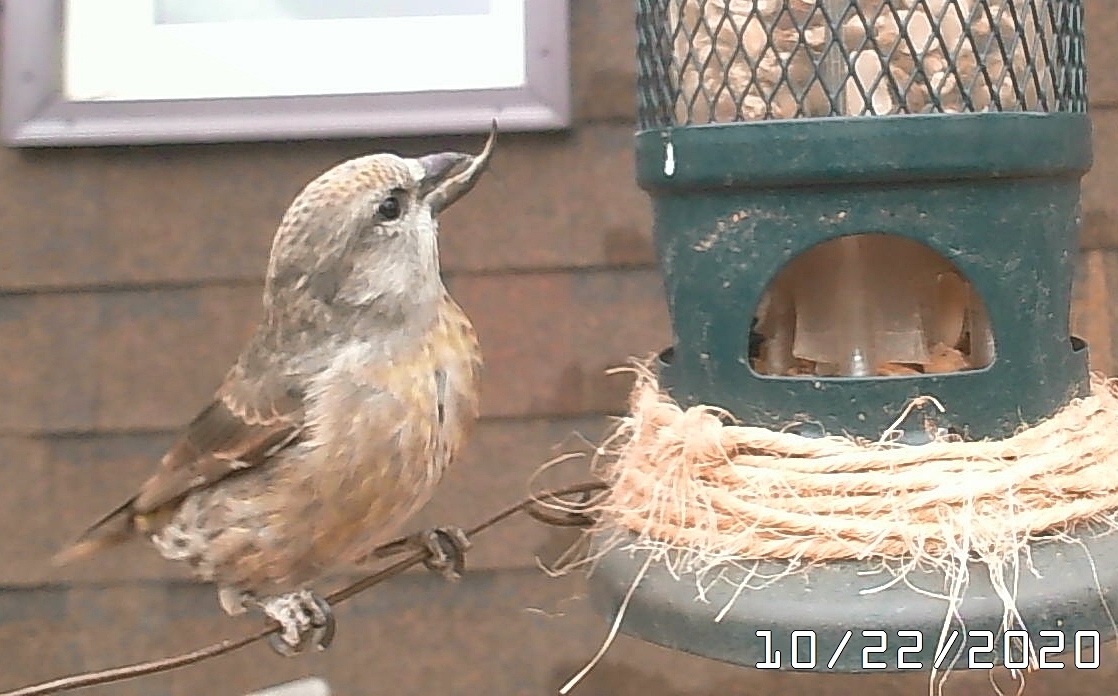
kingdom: Animalia
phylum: Chordata
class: Aves
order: Passeriformes
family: Fringillidae
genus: Loxia
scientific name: Loxia curvirostra
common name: Red crossbill
